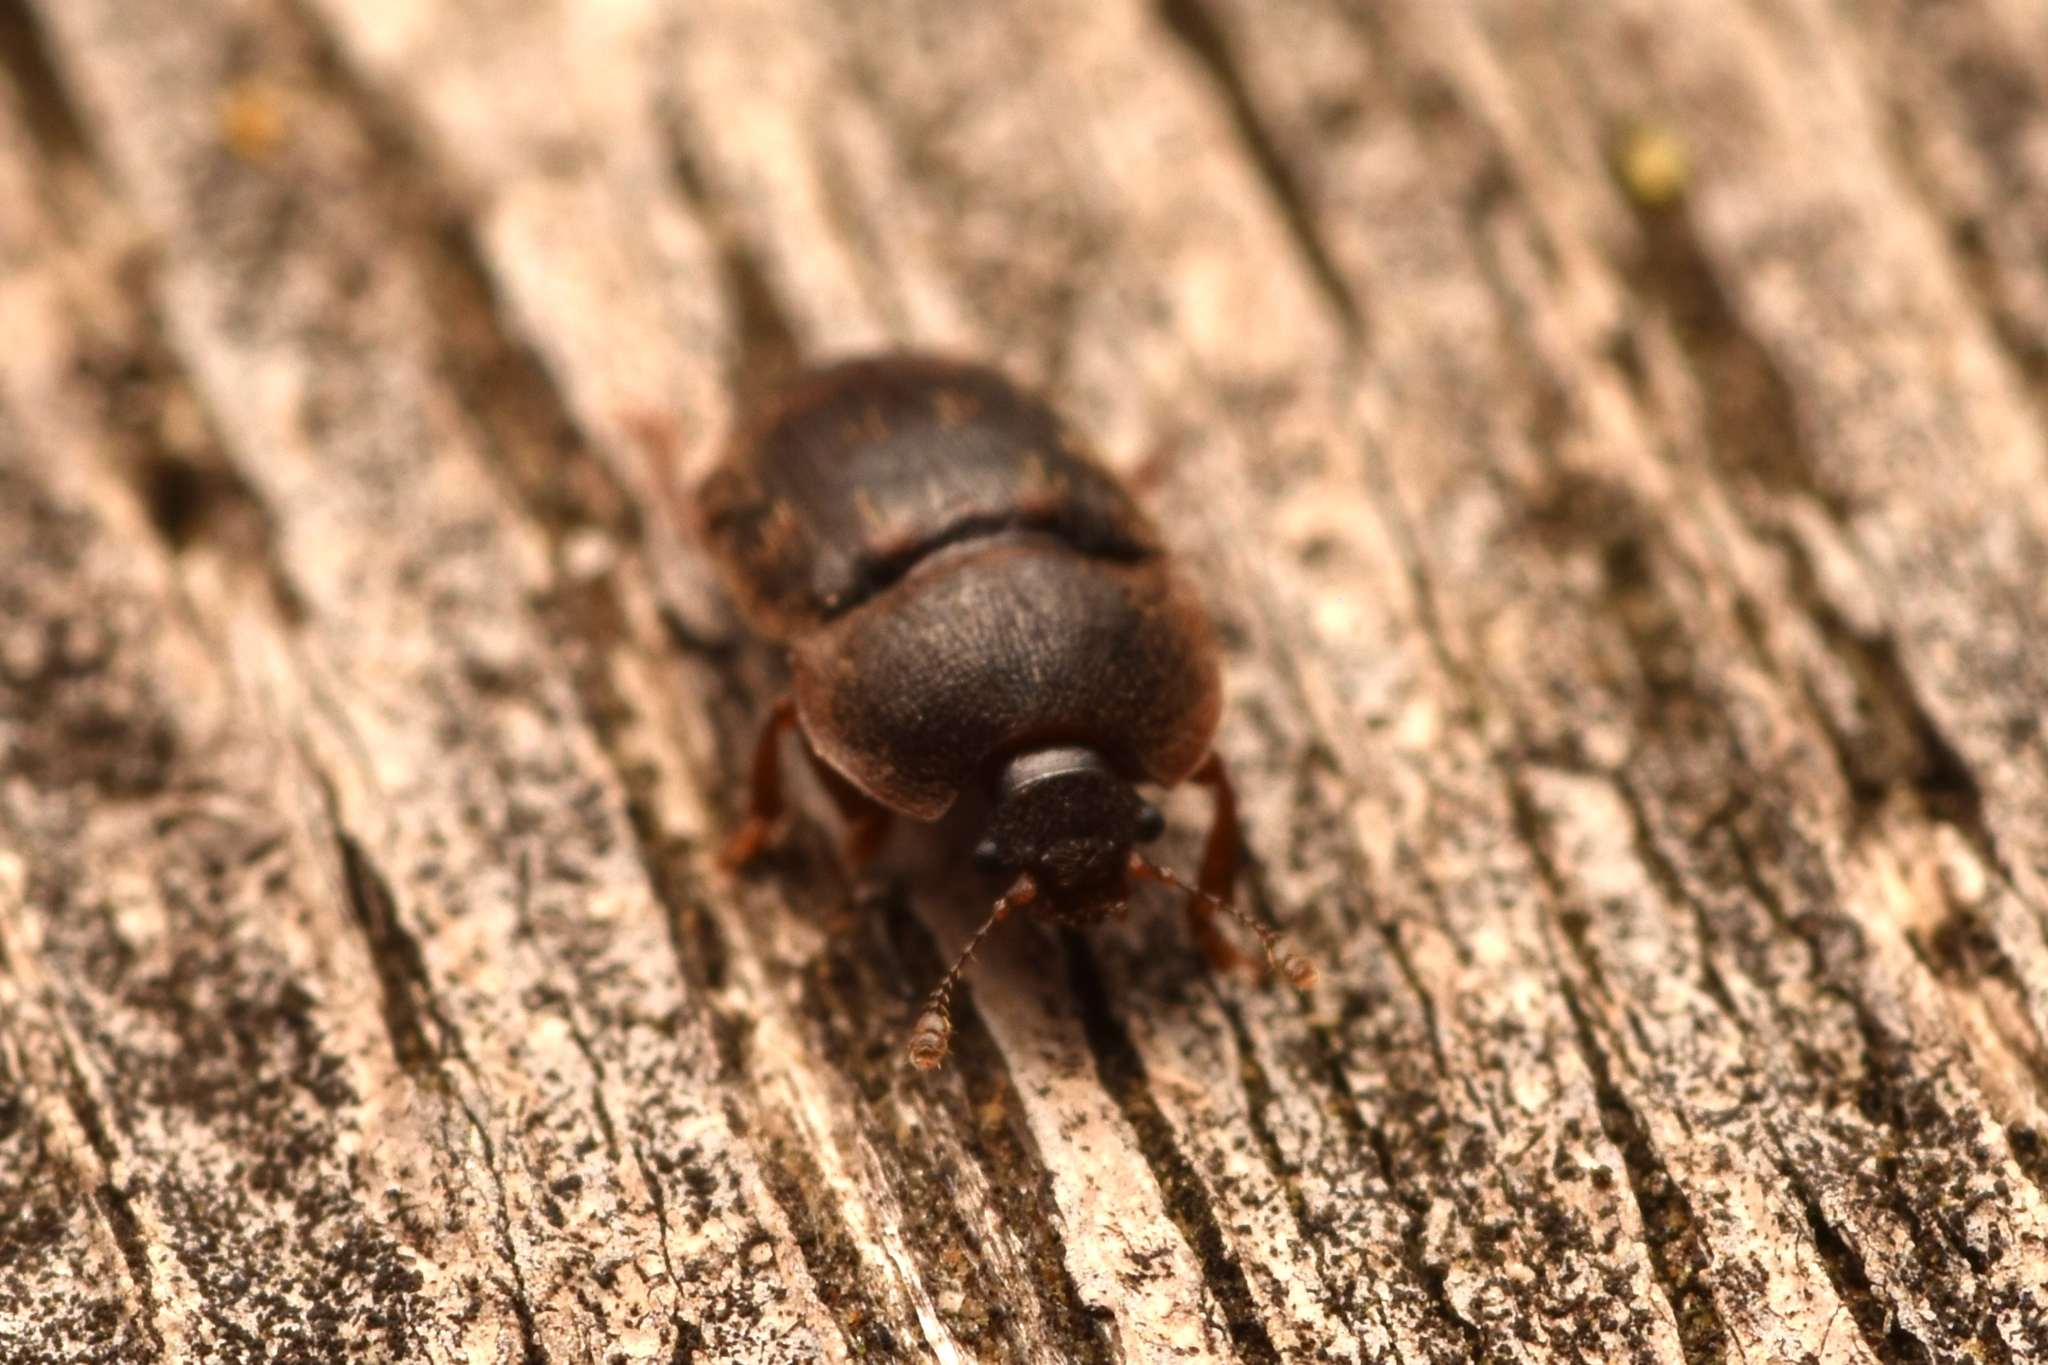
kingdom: Animalia
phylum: Arthropoda
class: Insecta
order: Coleoptera
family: Nitidulidae
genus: Stelidota
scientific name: Stelidota octomaculata
